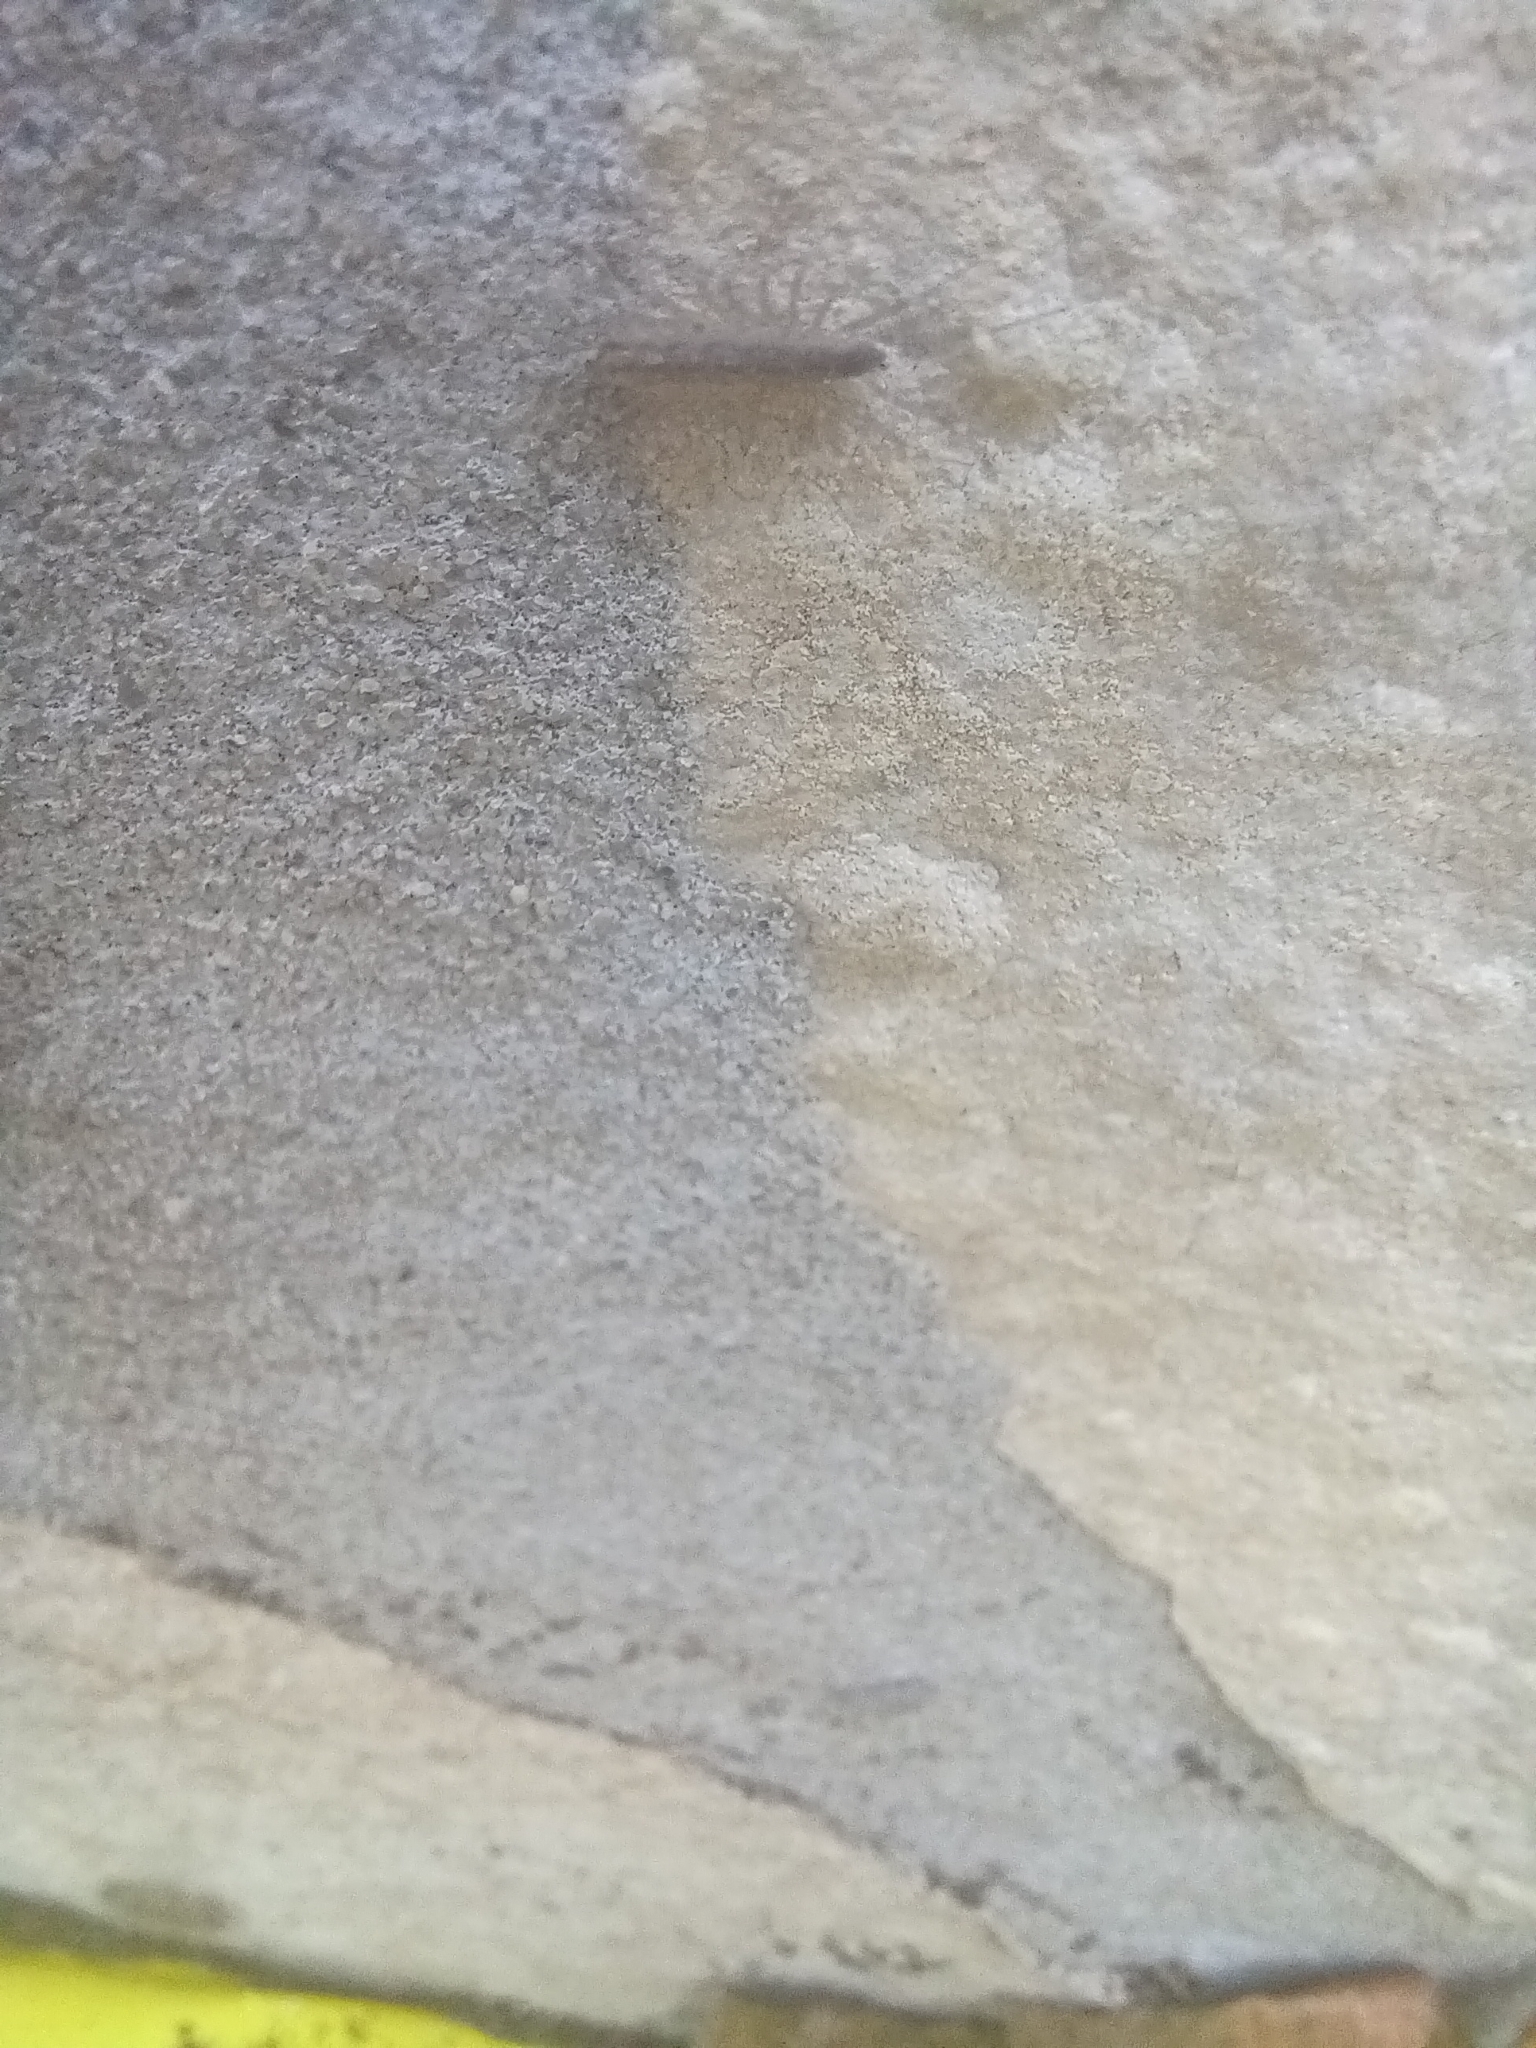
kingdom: Animalia
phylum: Arthropoda
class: Chilopoda
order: Scutigeromorpha
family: Scutigeridae
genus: Scutigera
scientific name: Scutigera coleoptrata
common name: House centipede
